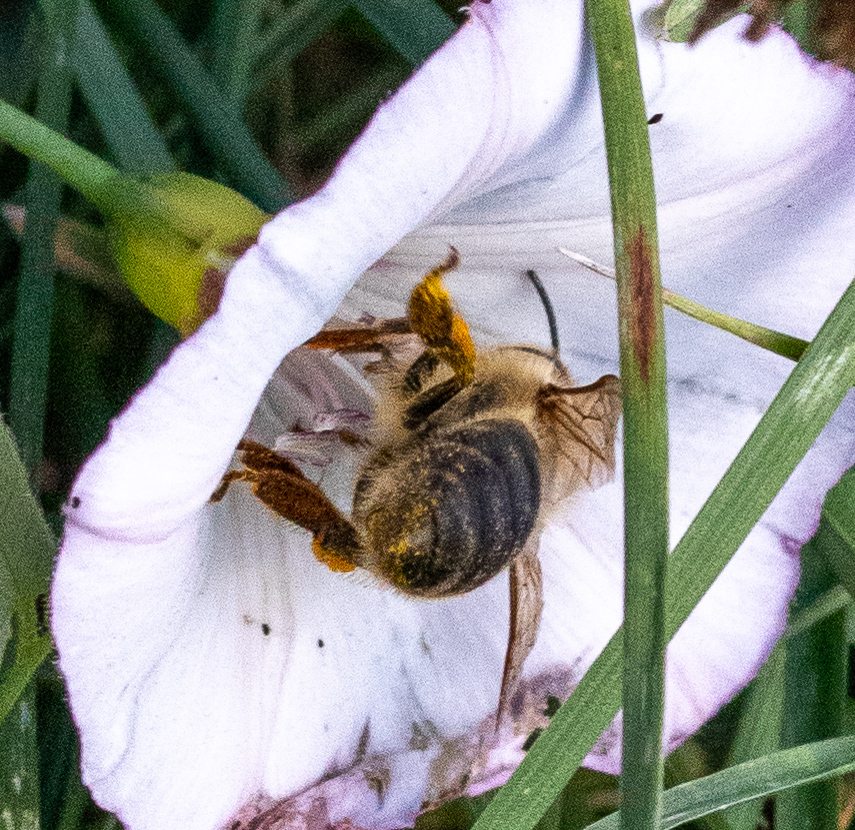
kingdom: Animalia
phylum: Arthropoda
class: Insecta
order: Hymenoptera
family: Apidae
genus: Apis
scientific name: Apis mellifera
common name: Honey bee
